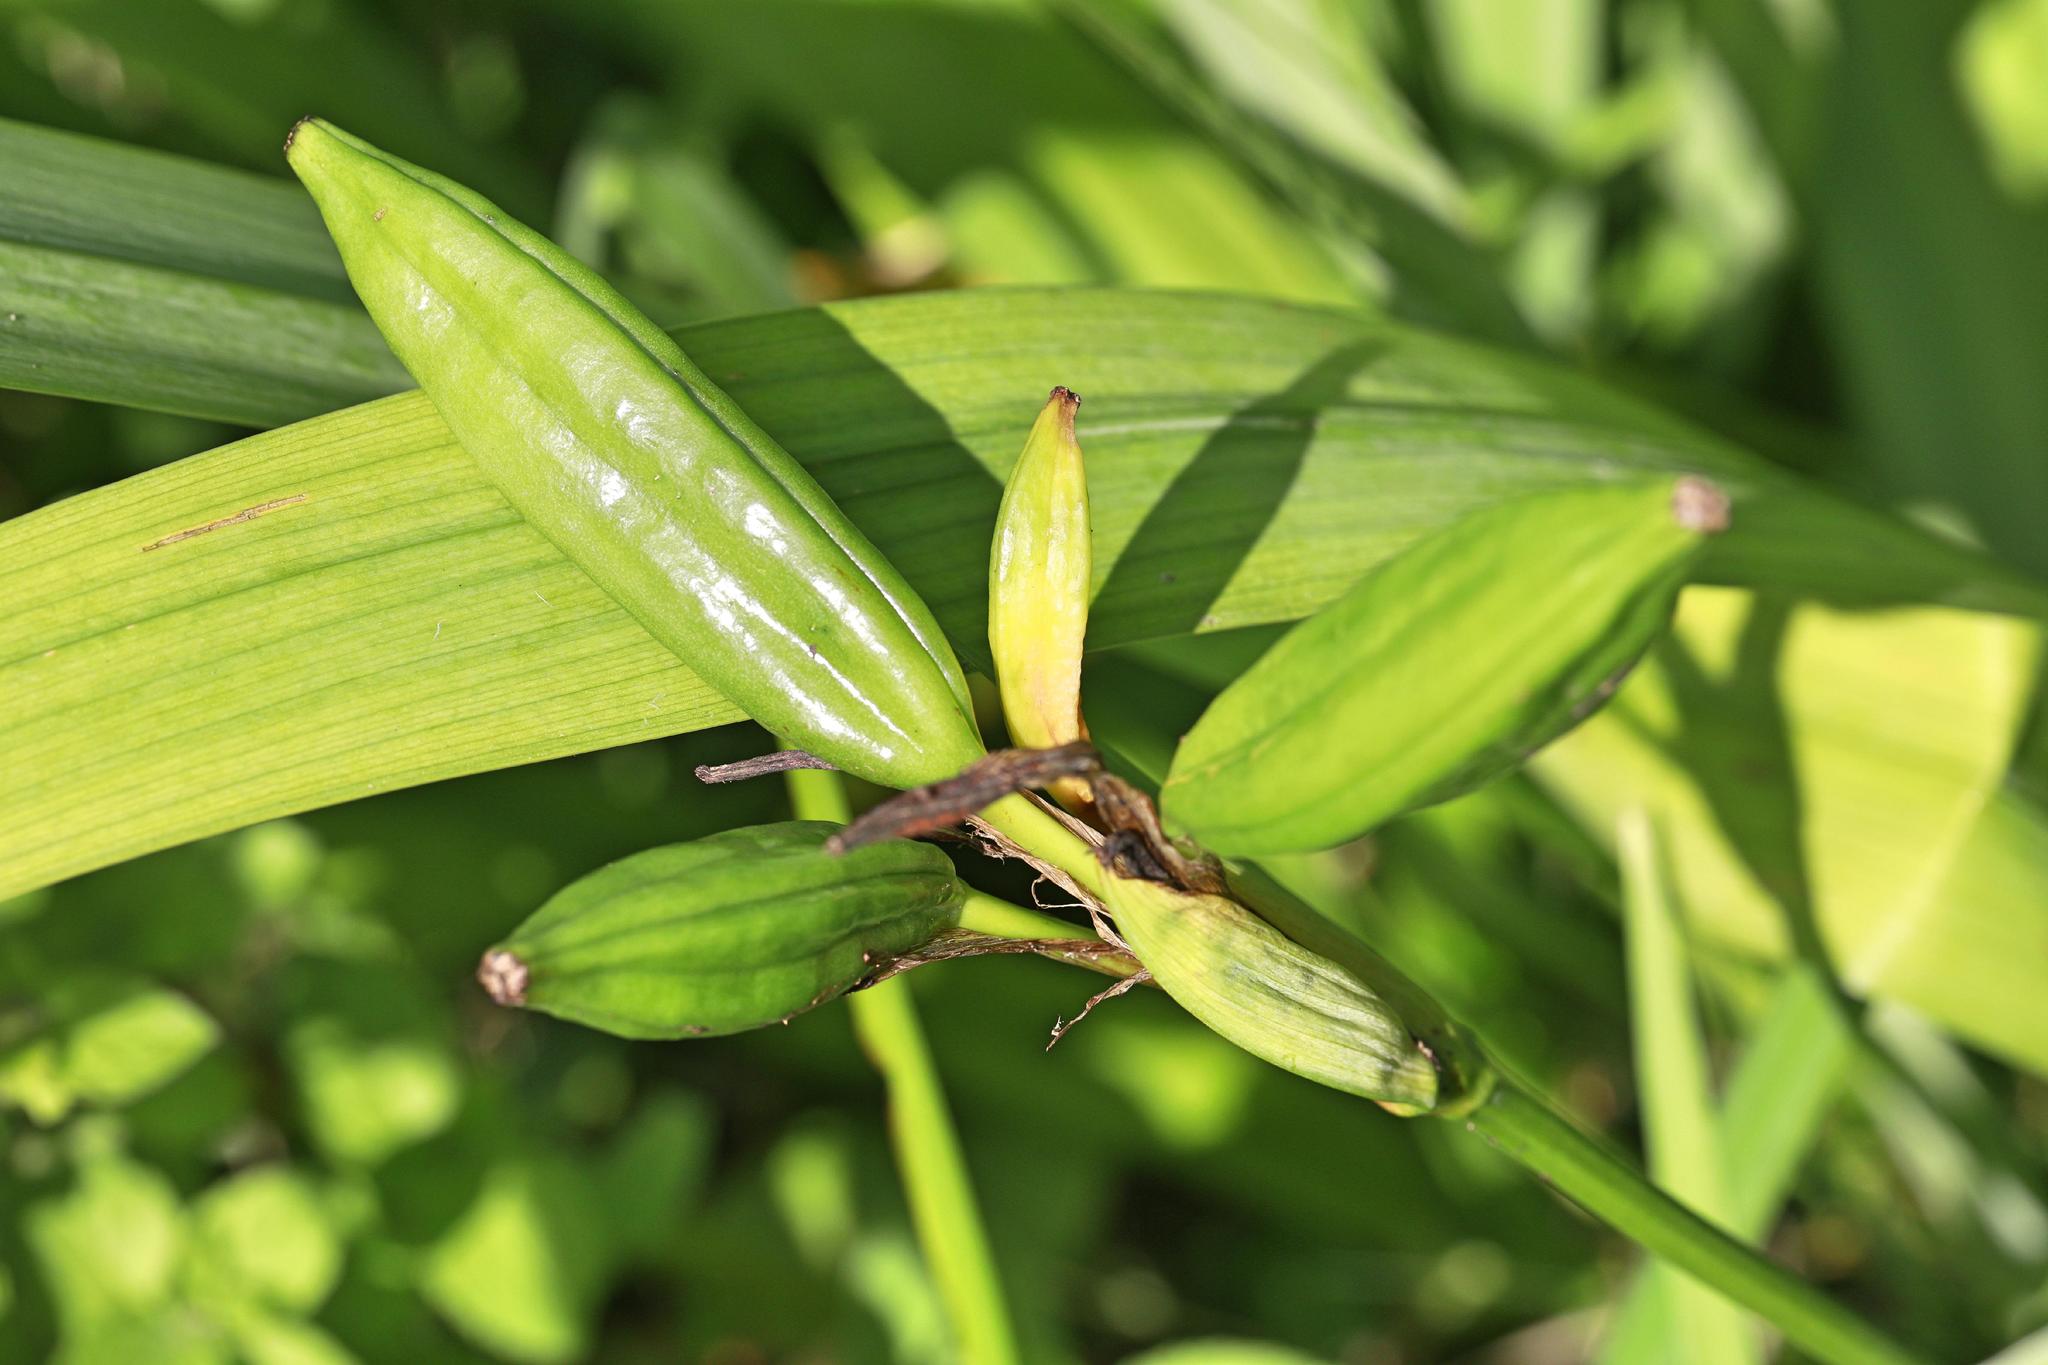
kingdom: Plantae
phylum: Tracheophyta
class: Liliopsida
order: Asparagales
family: Iridaceae
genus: Iris
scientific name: Iris pseudacorus
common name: Yellow flag
